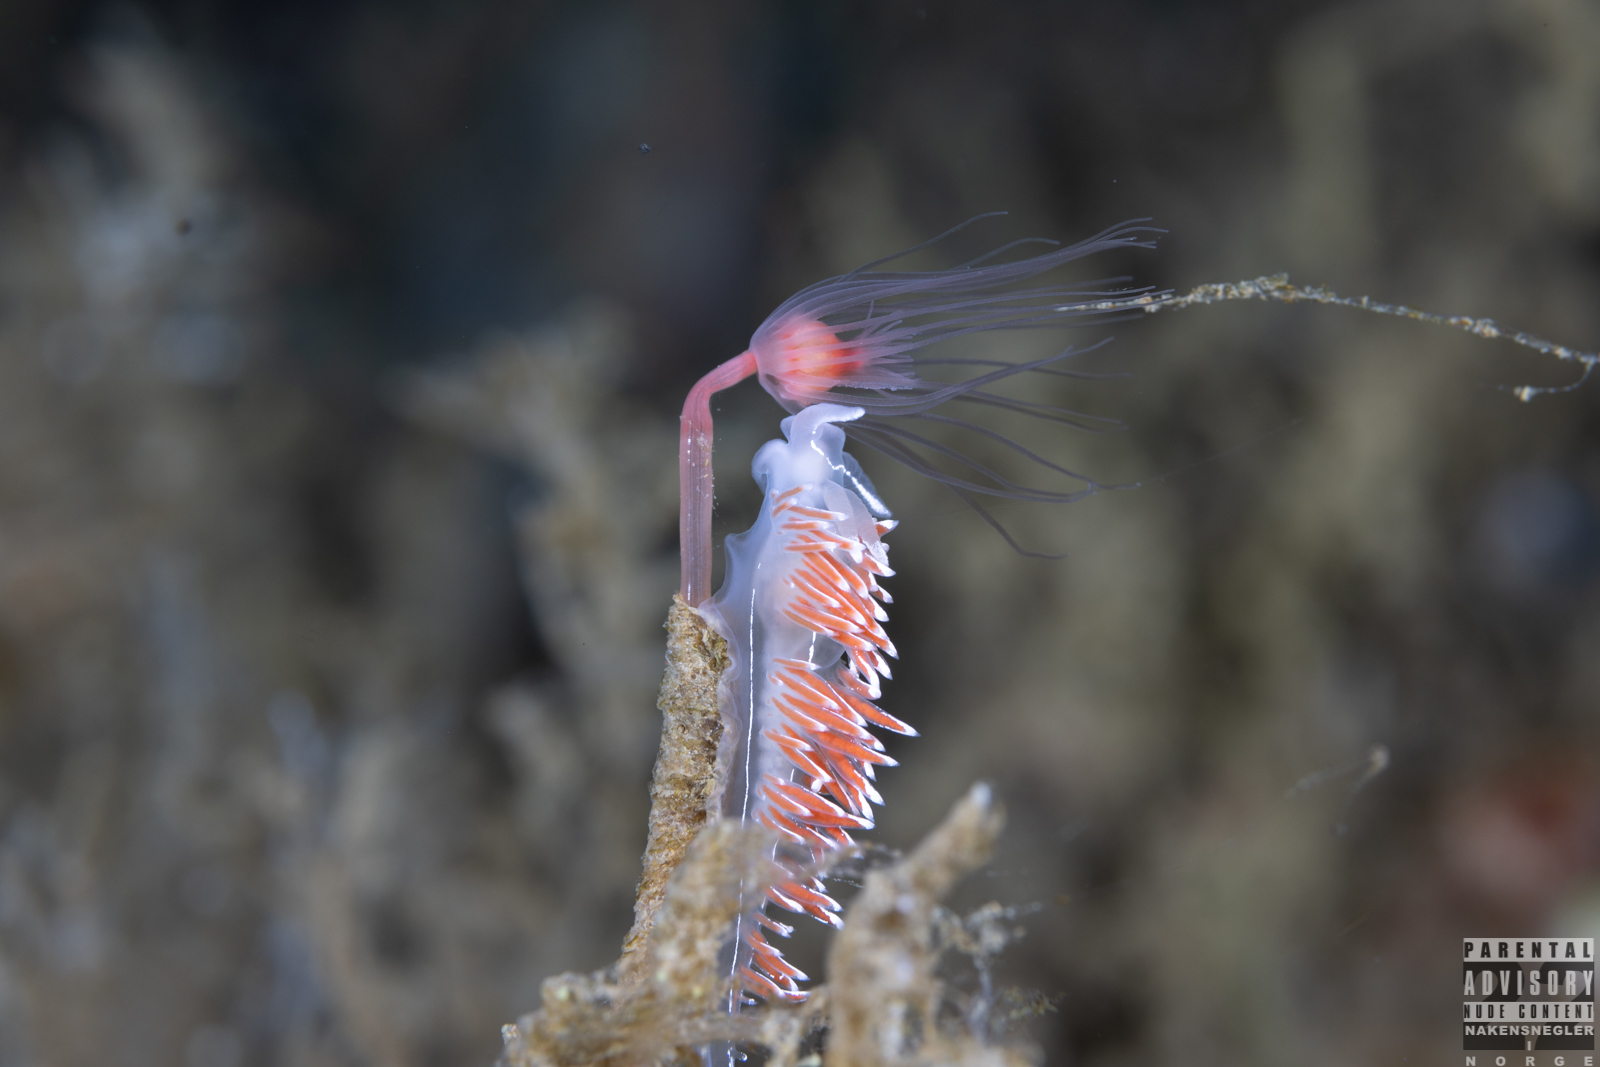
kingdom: Animalia
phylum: Mollusca
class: Gastropoda
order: Nudibranchia
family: Coryphellidae
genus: Coryphella
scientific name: Coryphella lineata
